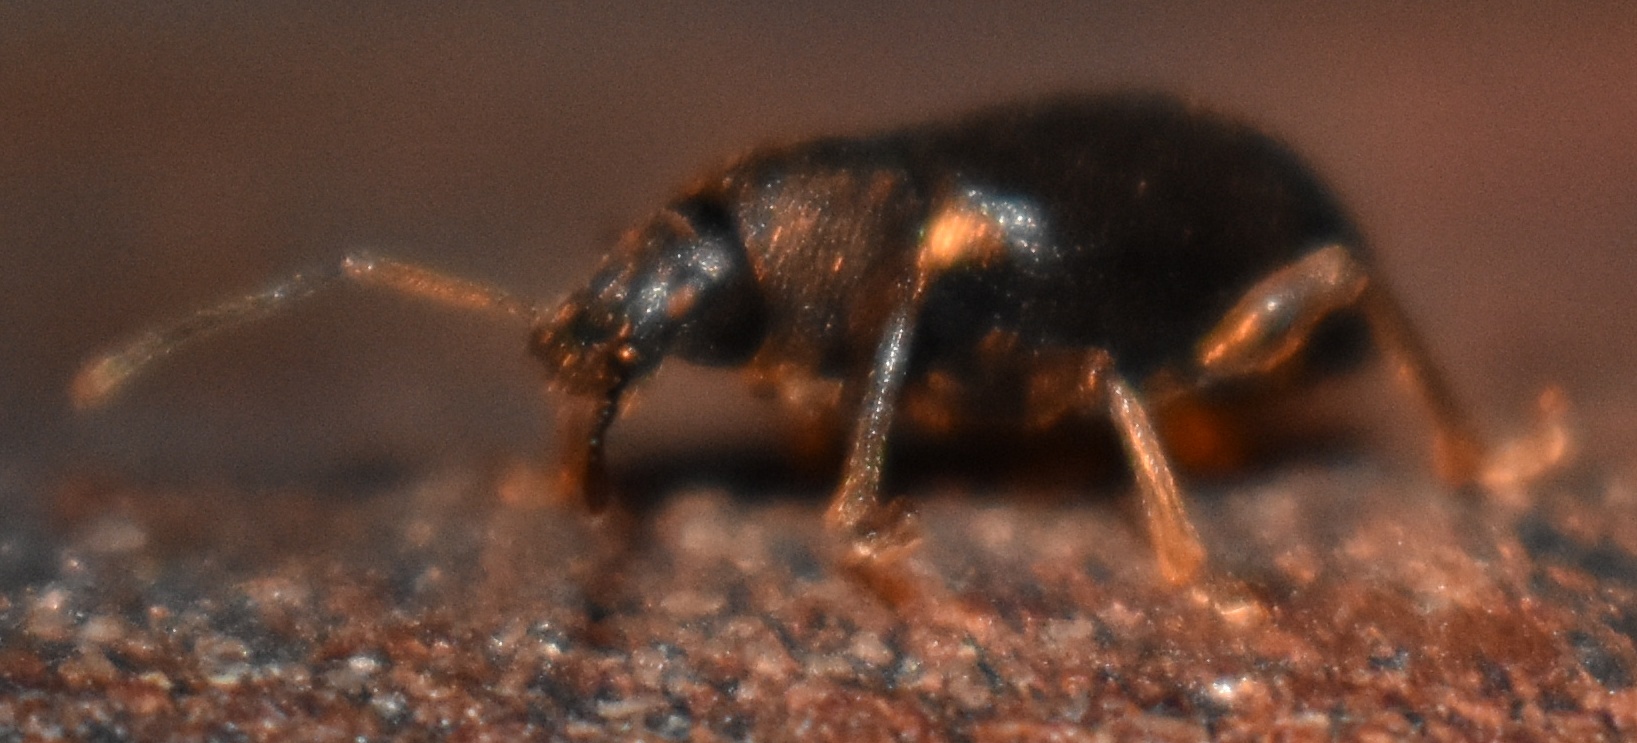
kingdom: Animalia
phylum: Arthropoda
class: Insecta
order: Coleoptera
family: Curculionidae
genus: Otiorhynchus
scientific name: Otiorhynchus ovatus
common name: Strawberry root weevil
